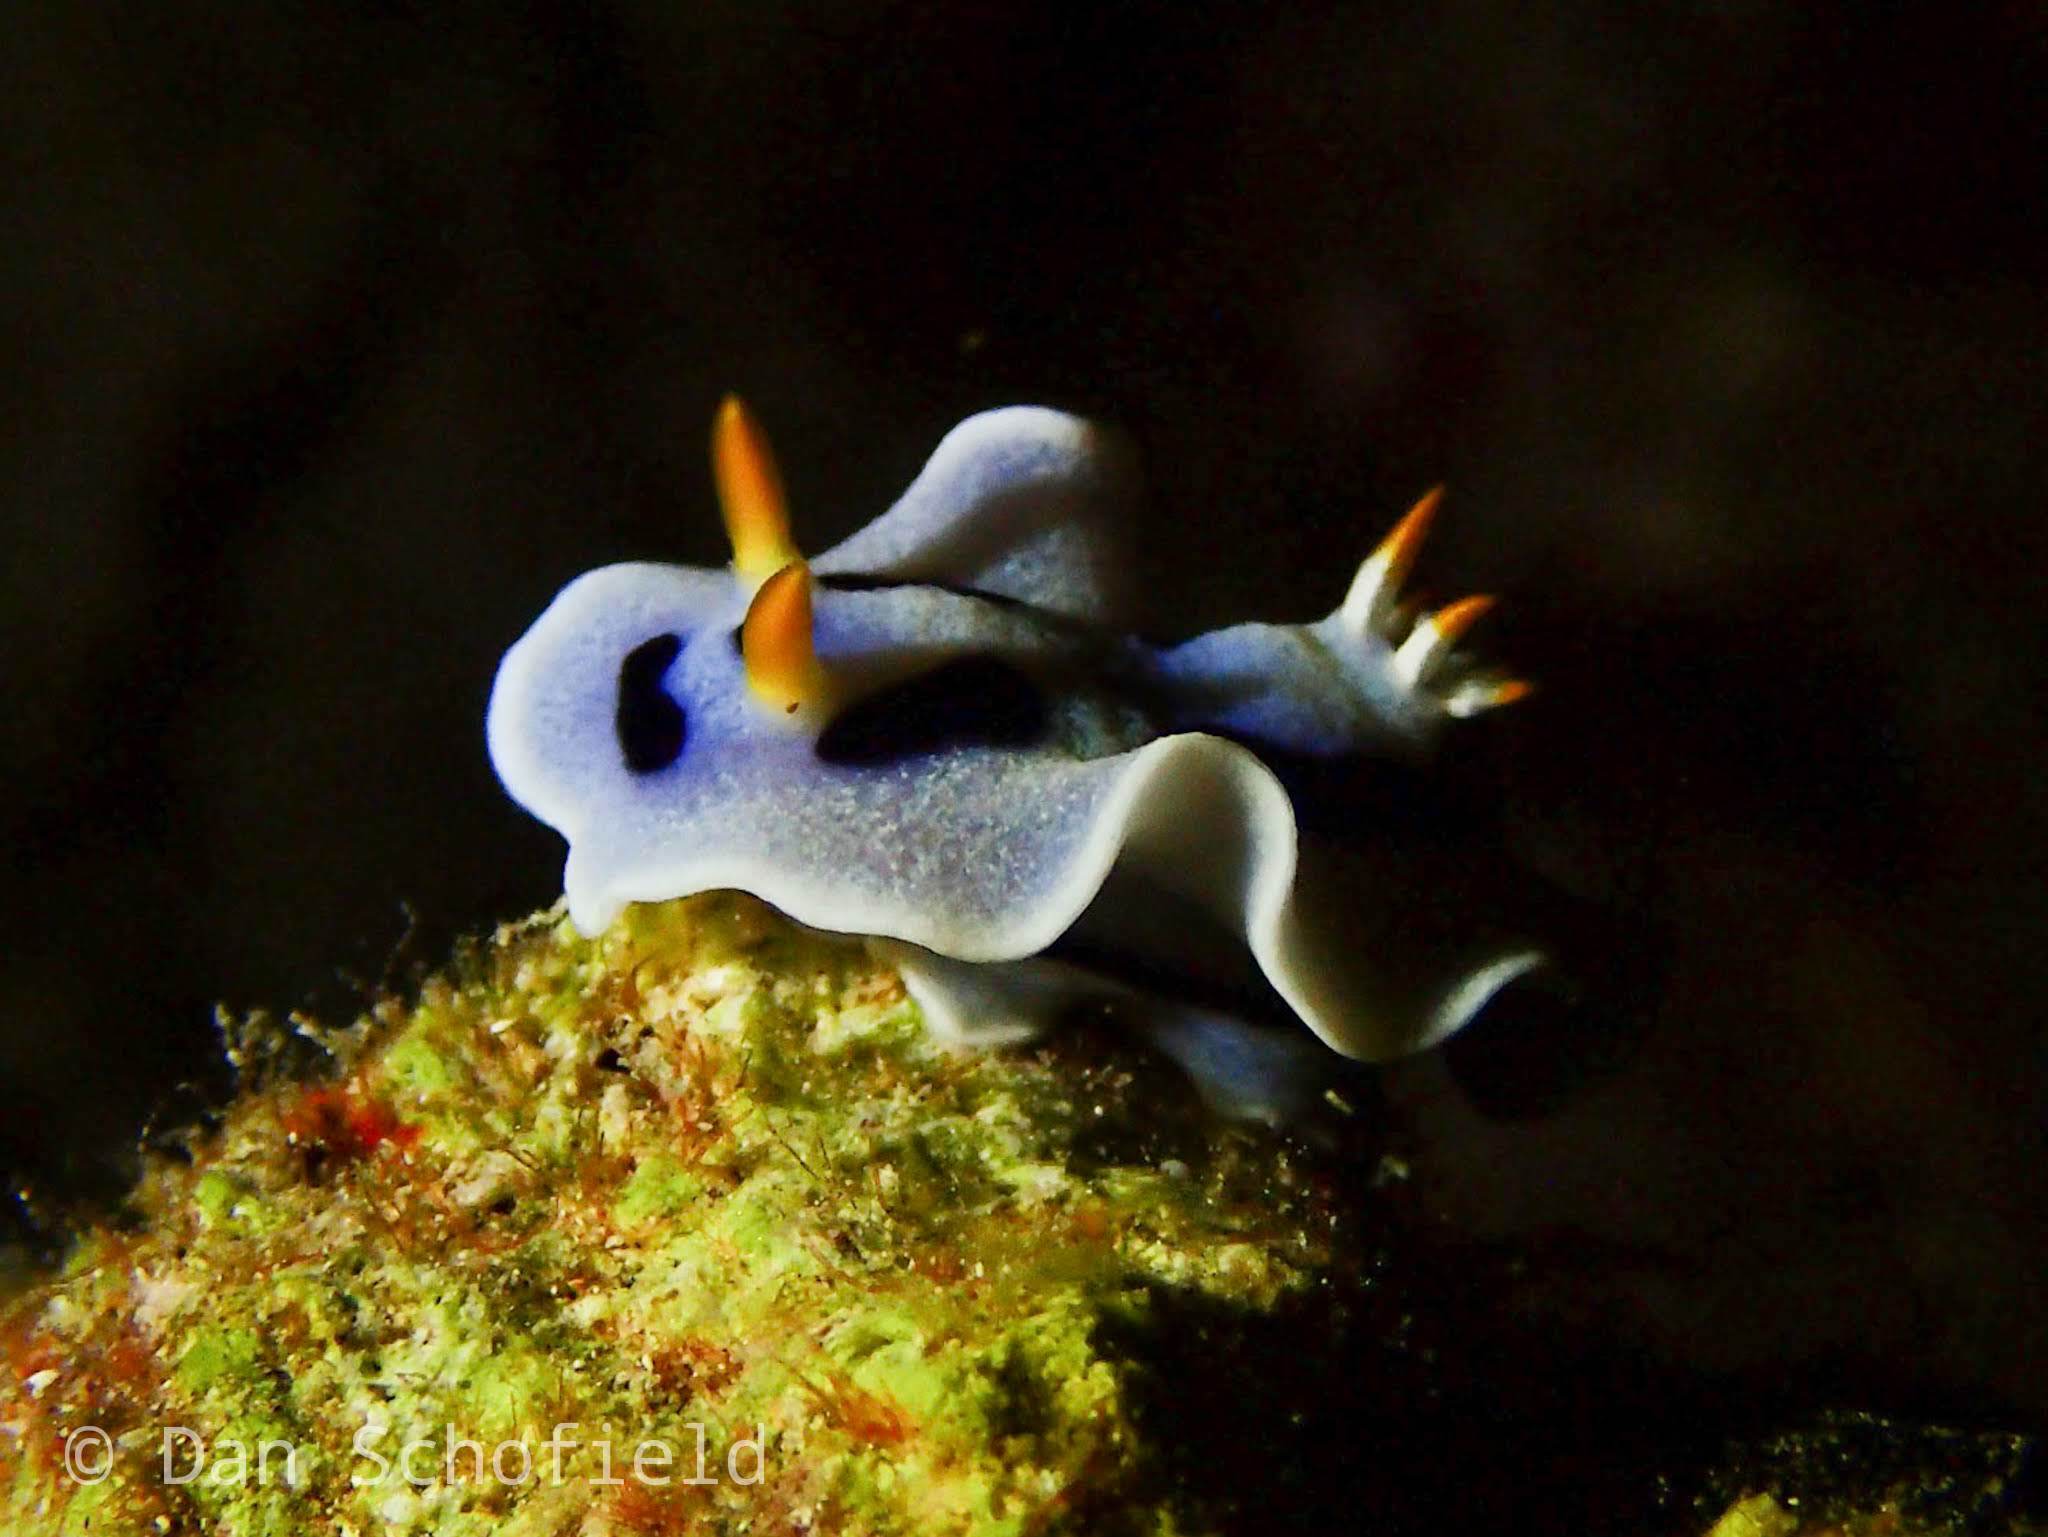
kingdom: Animalia
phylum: Mollusca
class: Gastropoda
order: Nudibranchia
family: Chromodorididae
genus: Chromodoris
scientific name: Chromodoris alcalai
